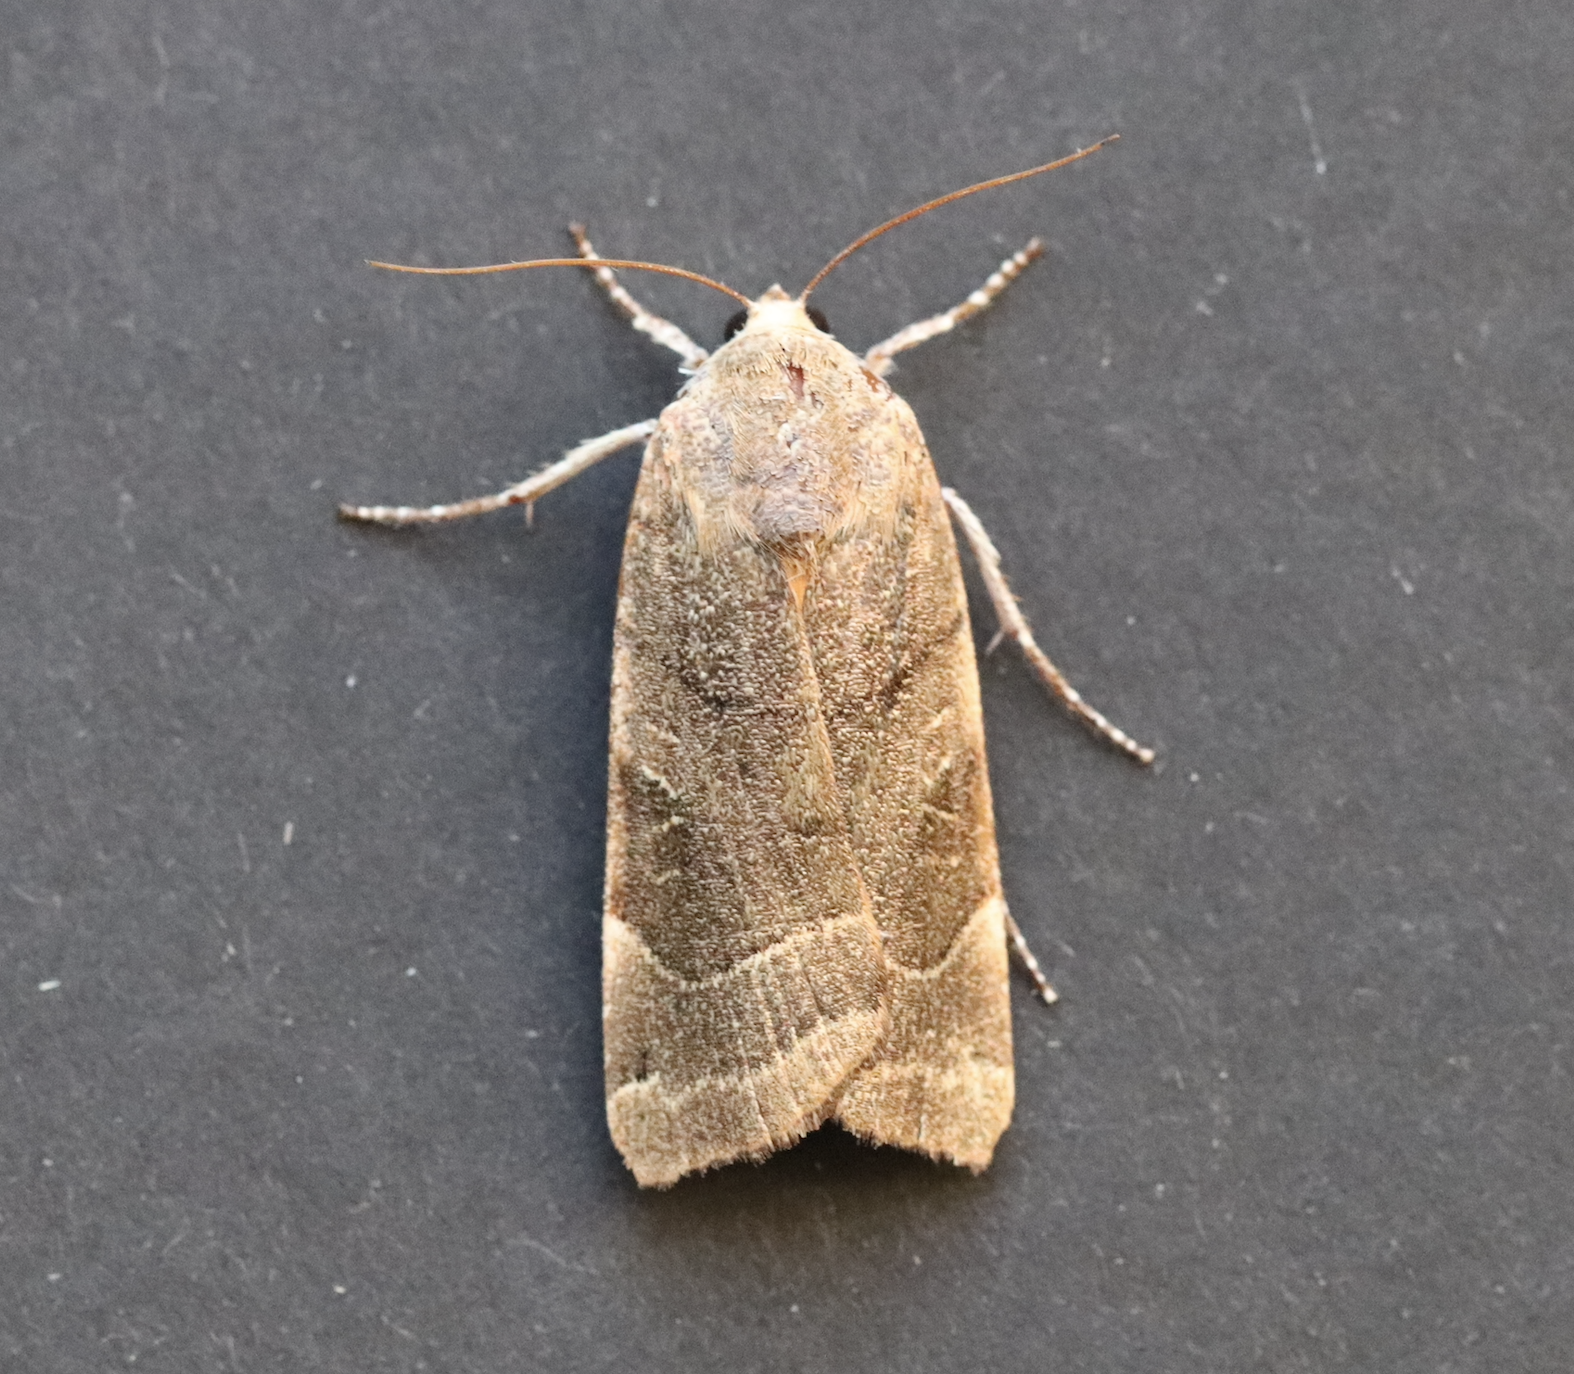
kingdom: Animalia
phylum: Arthropoda
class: Insecta
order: Lepidoptera
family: Noctuidae
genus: Noctua
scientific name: Noctua fimbriata
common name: Broad-bordered yellow underwing
